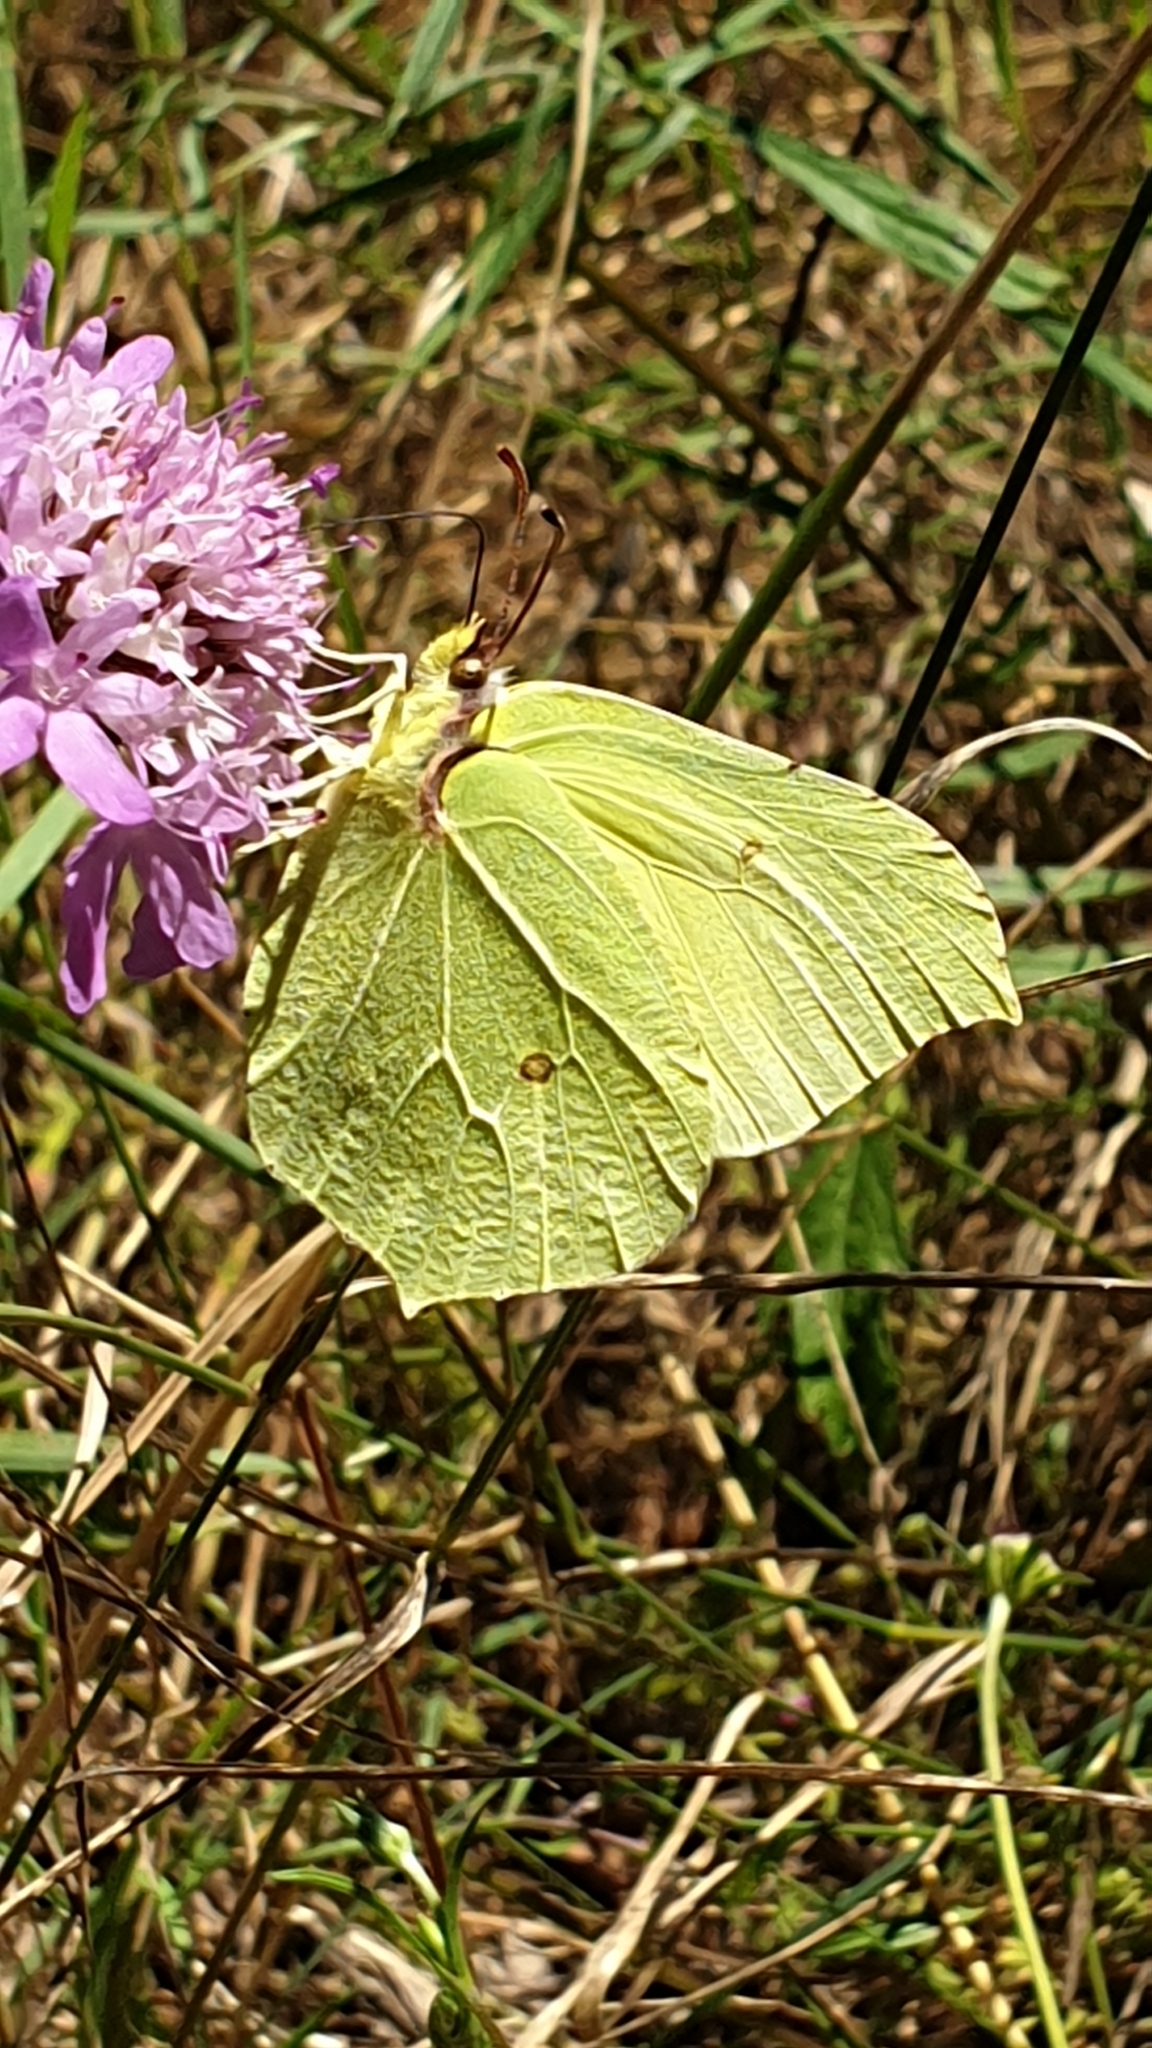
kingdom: Animalia
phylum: Arthropoda
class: Insecta
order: Lepidoptera
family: Pieridae
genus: Gonepteryx
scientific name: Gonepteryx rhamni
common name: Brimstone
